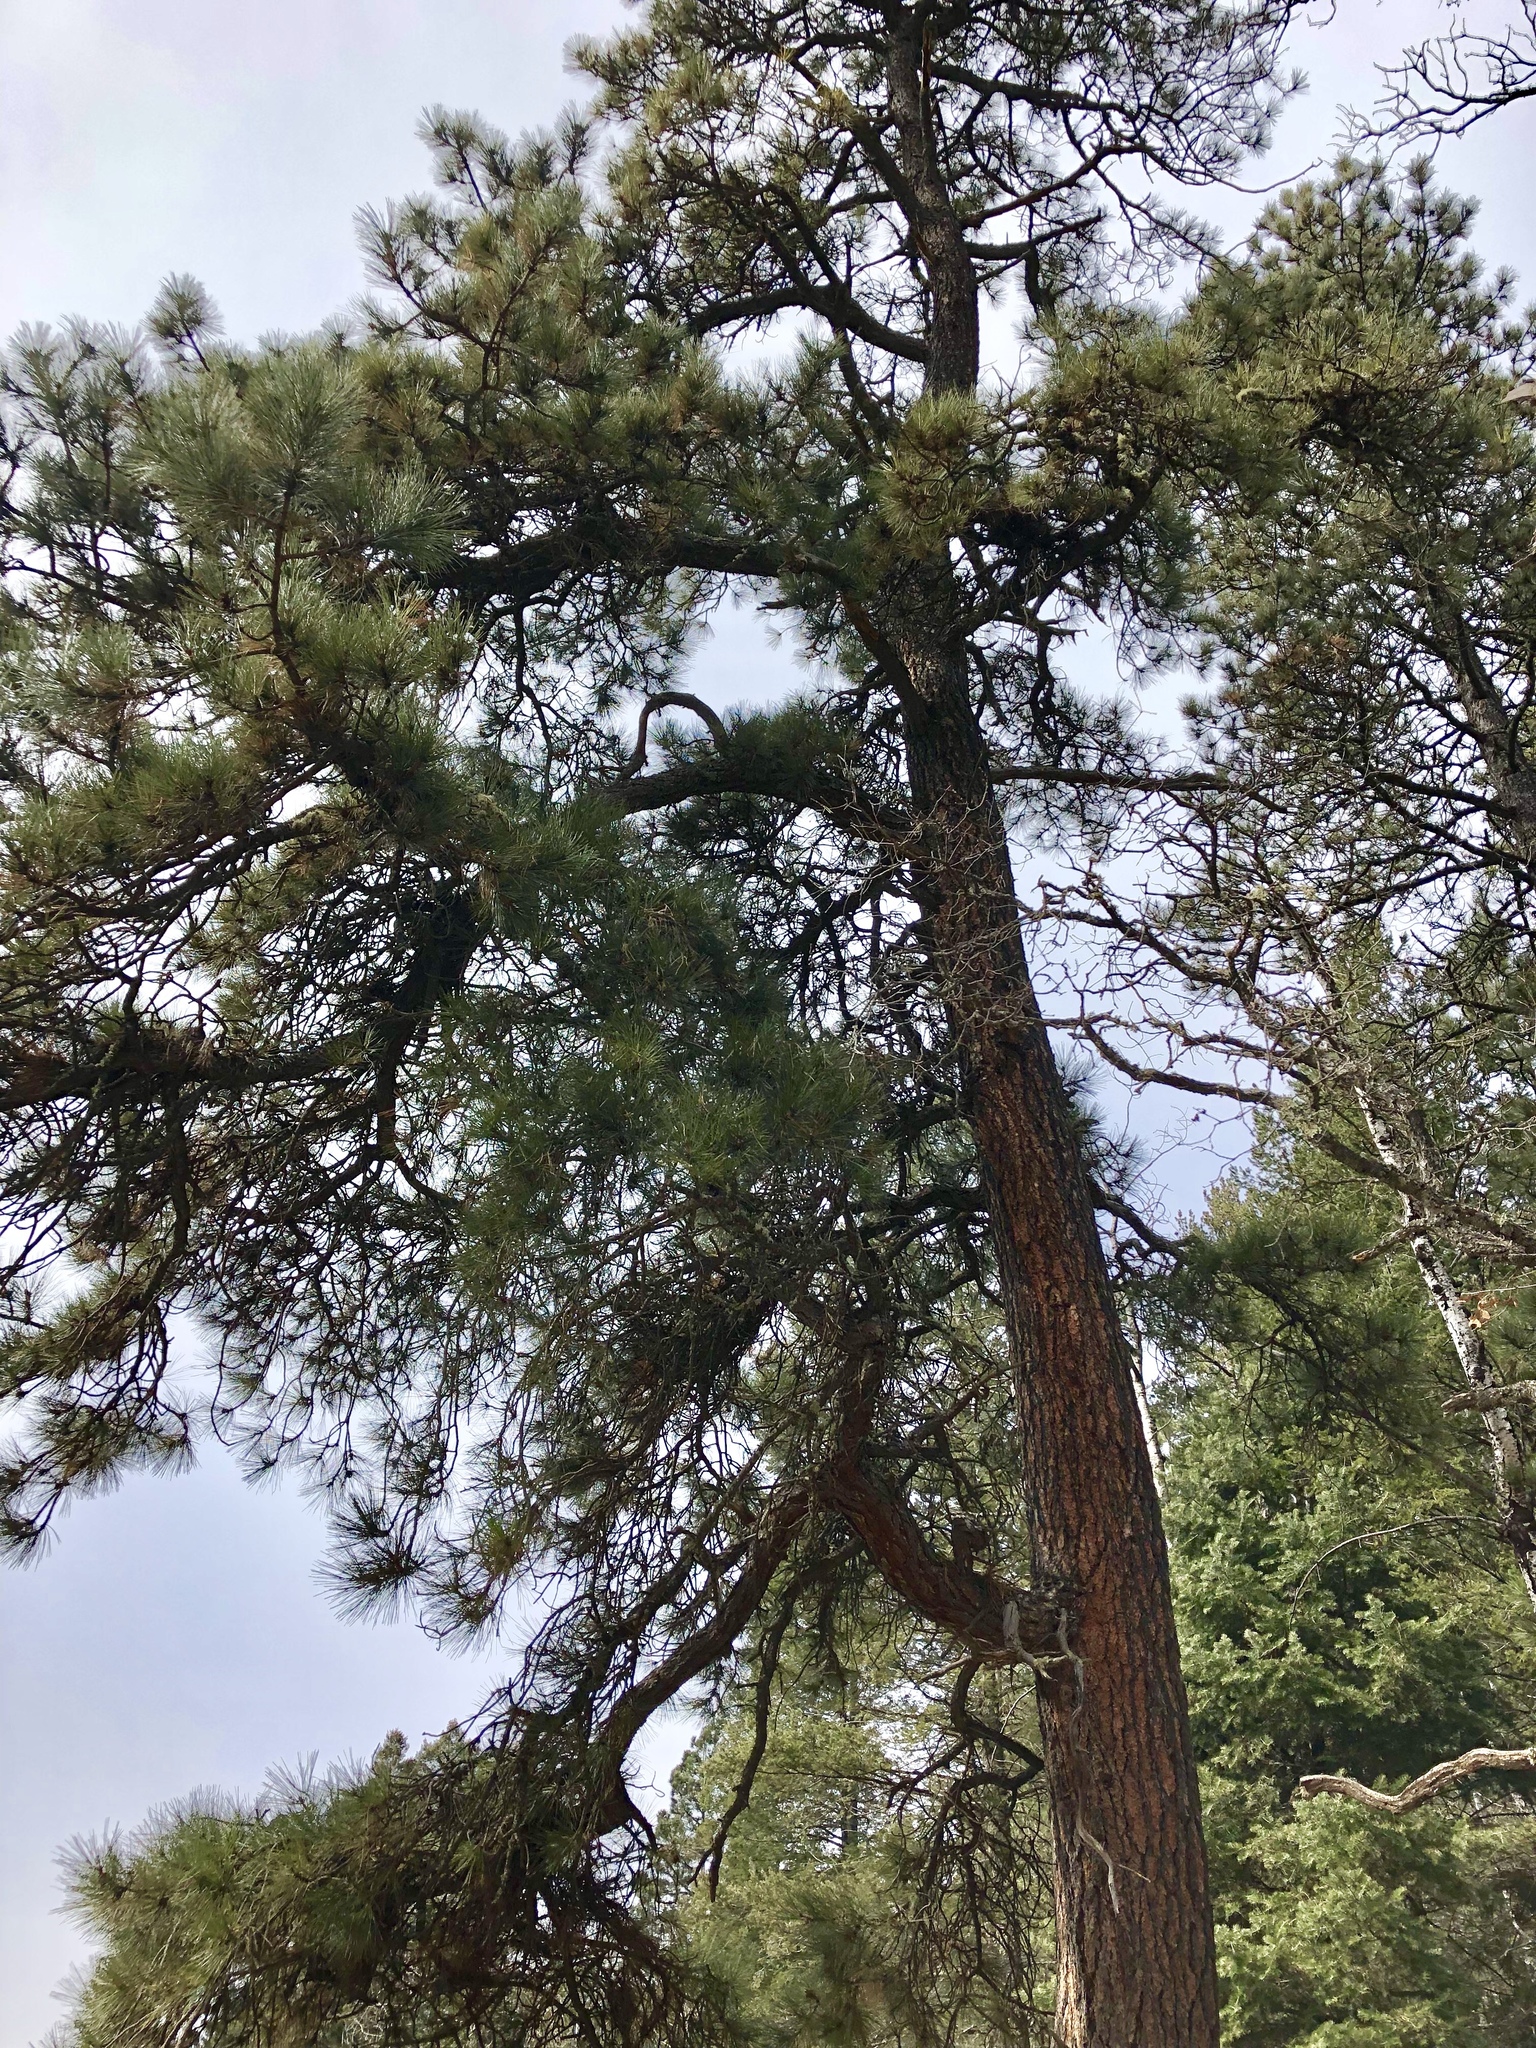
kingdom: Plantae
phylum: Tracheophyta
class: Pinopsida
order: Pinales
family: Pinaceae
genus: Pinus
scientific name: Pinus ponderosa
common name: Western yellow-pine
